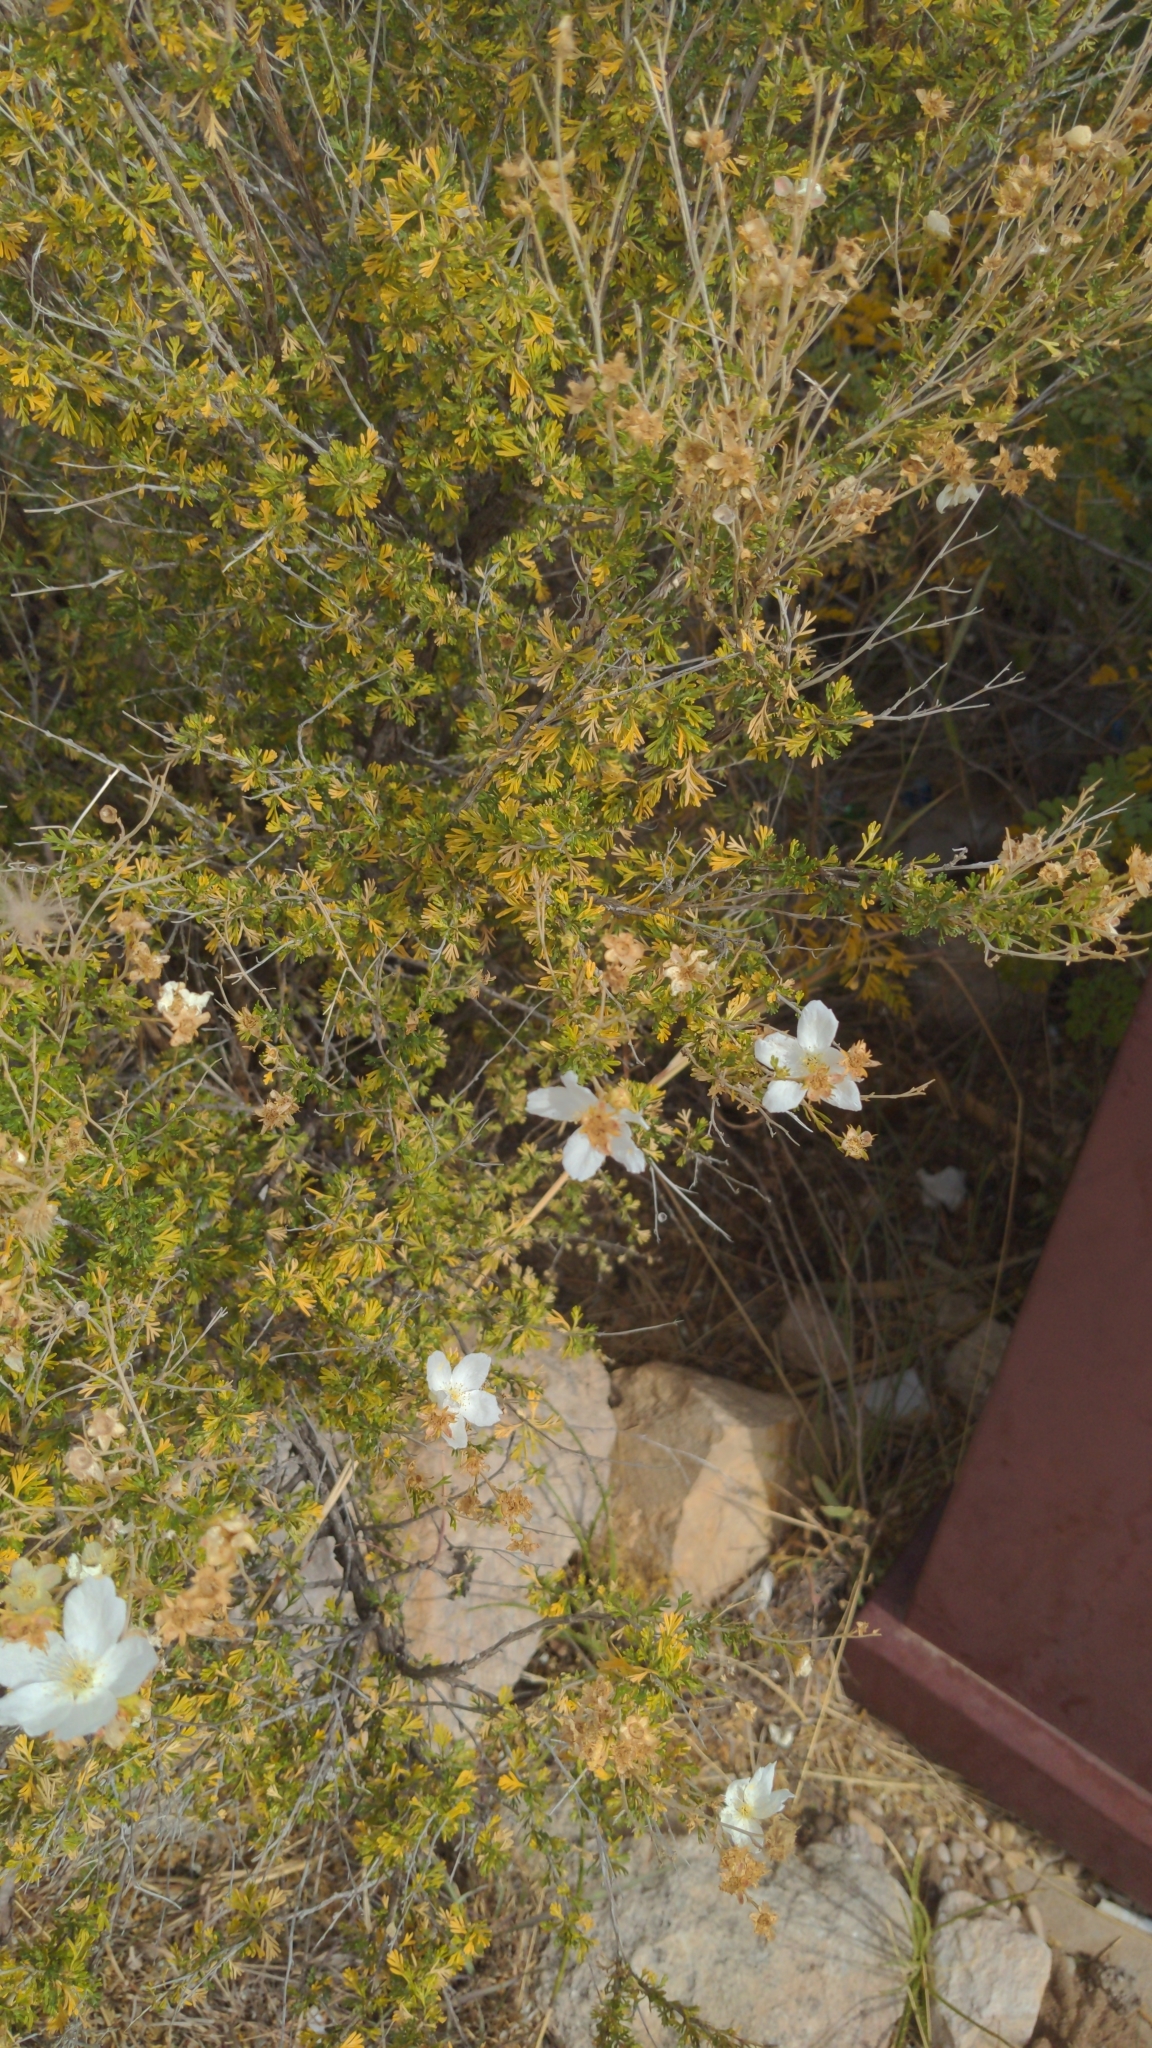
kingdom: Plantae
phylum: Tracheophyta
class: Magnoliopsida
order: Rosales
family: Rosaceae
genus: Fallugia
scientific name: Fallugia paradoxa
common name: Apache-plume
